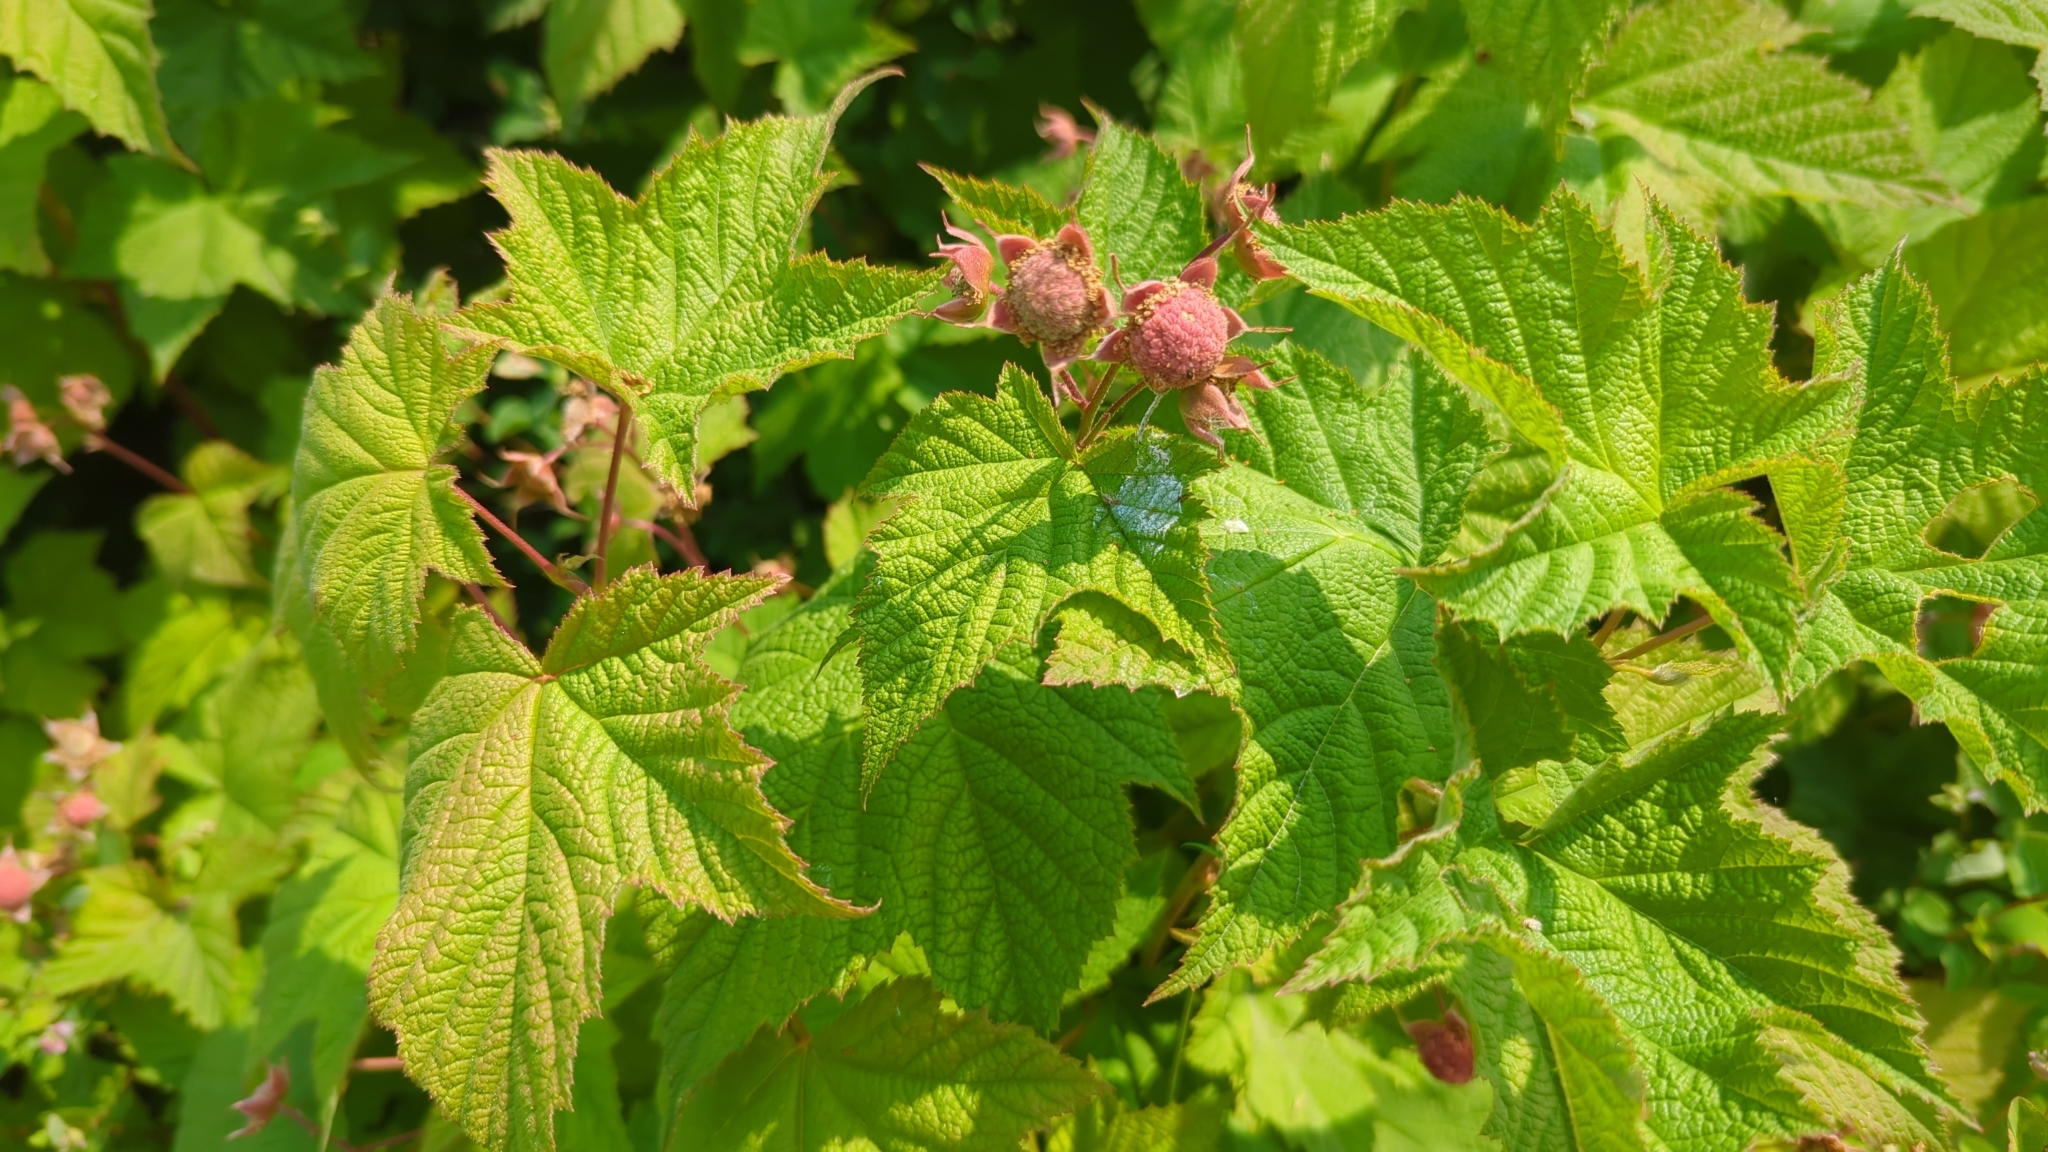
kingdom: Plantae
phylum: Tracheophyta
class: Magnoliopsida
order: Rosales
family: Rosaceae
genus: Rubus
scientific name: Rubus parviflorus
